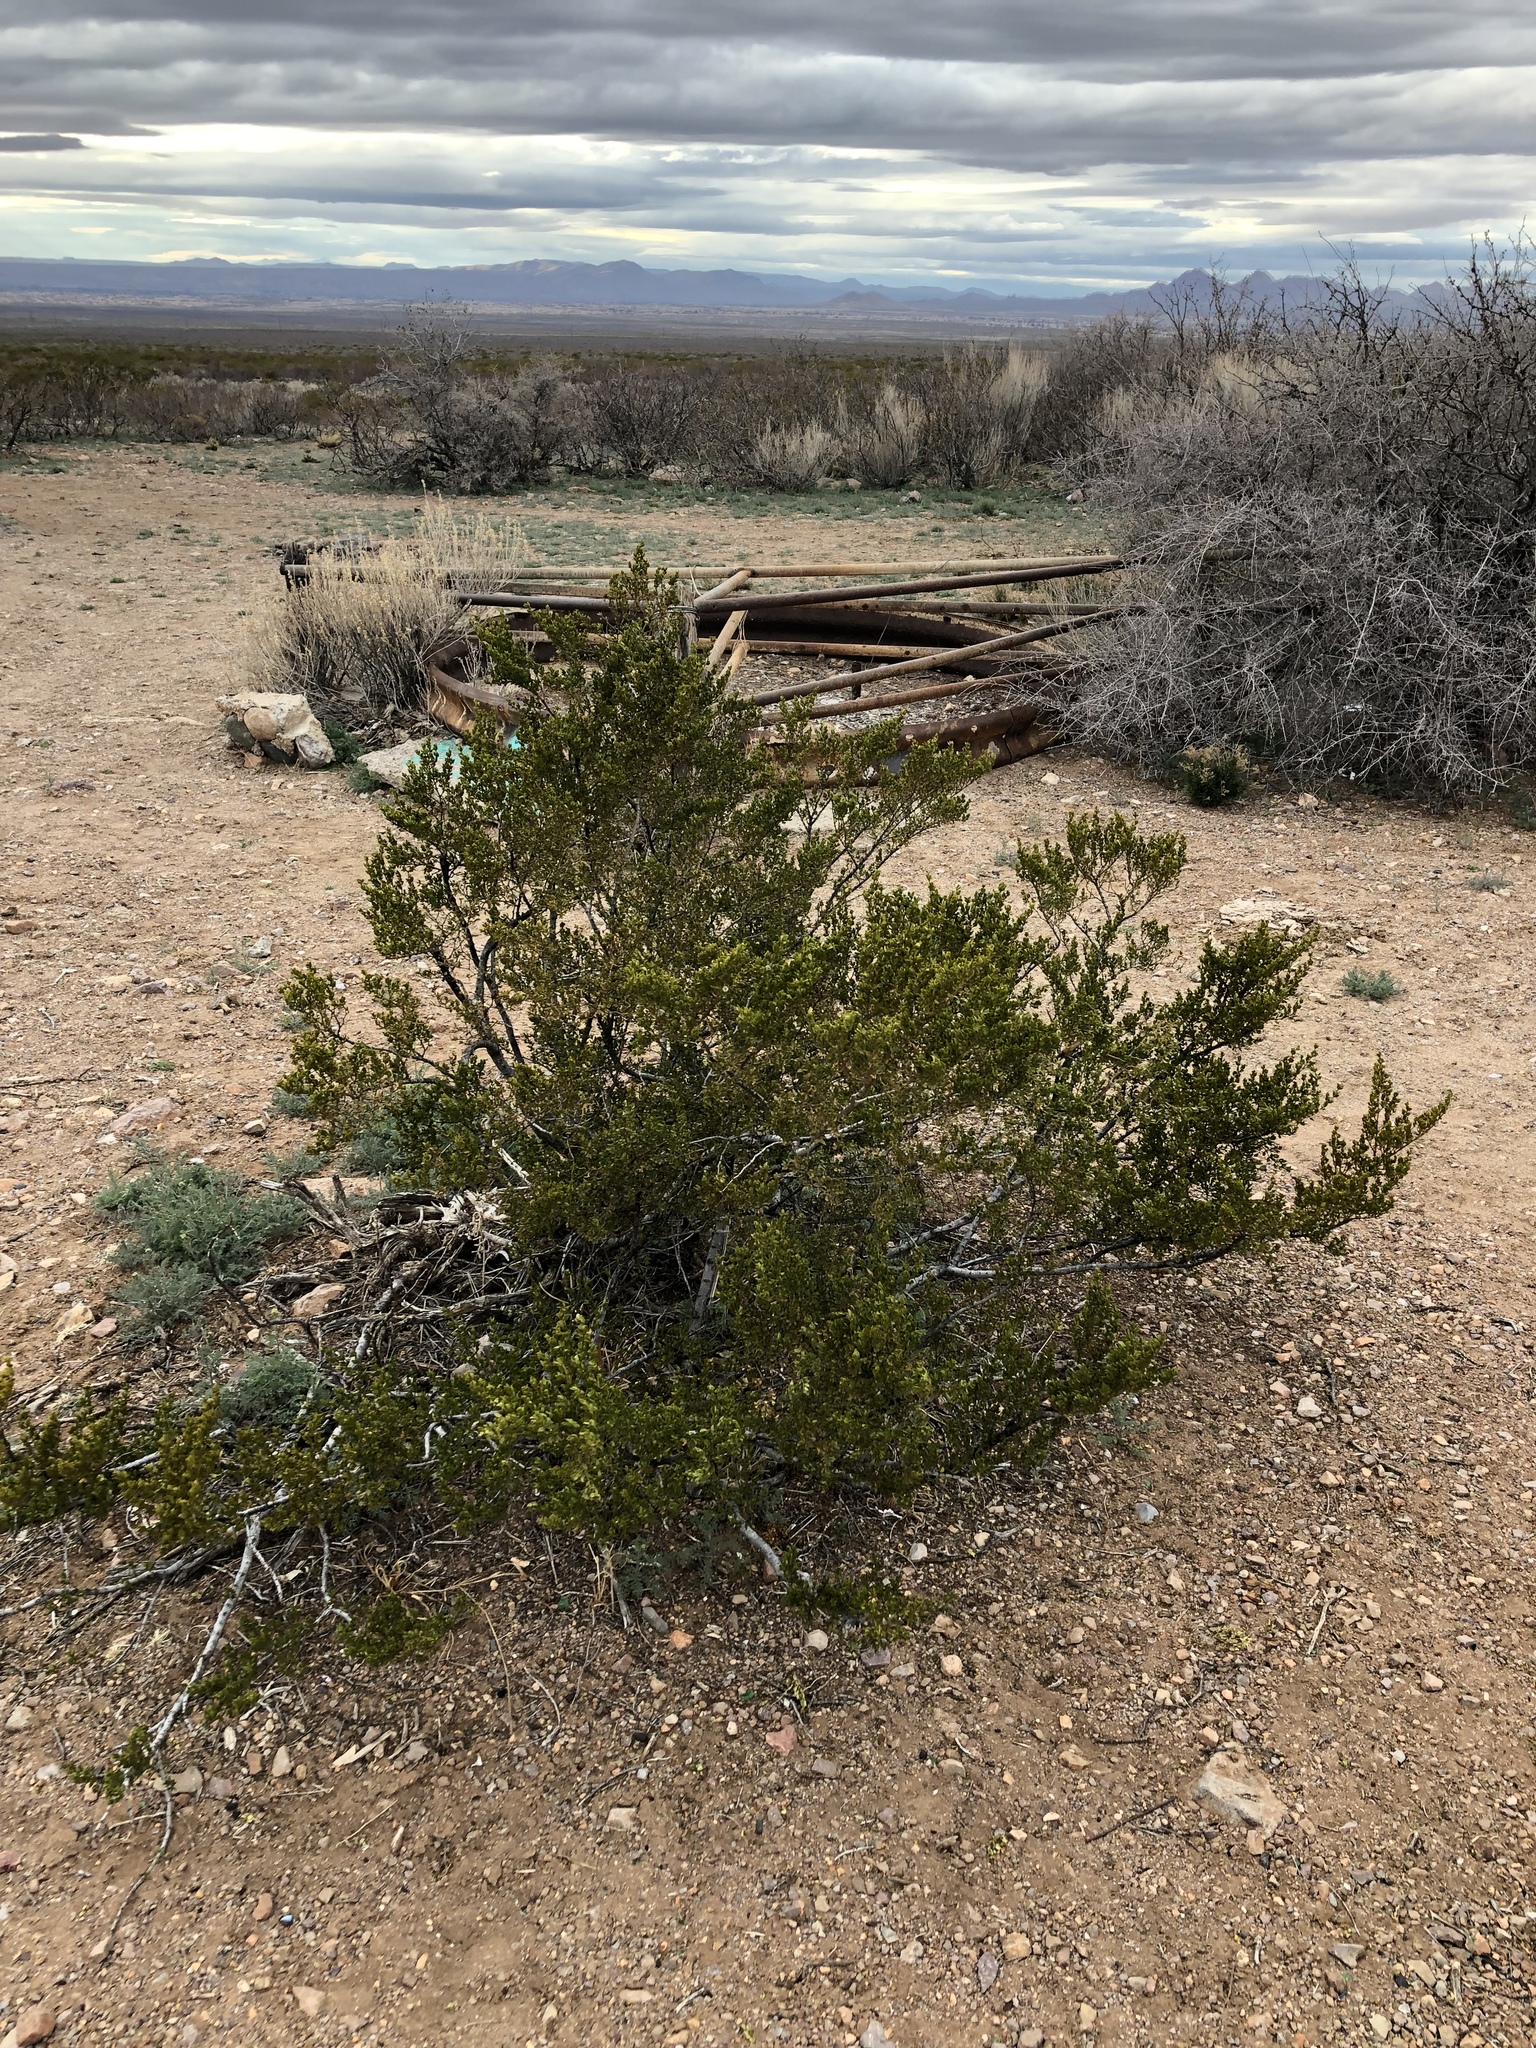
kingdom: Plantae
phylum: Tracheophyta
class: Magnoliopsida
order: Zygophyllales
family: Zygophyllaceae
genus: Larrea
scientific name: Larrea tridentata
